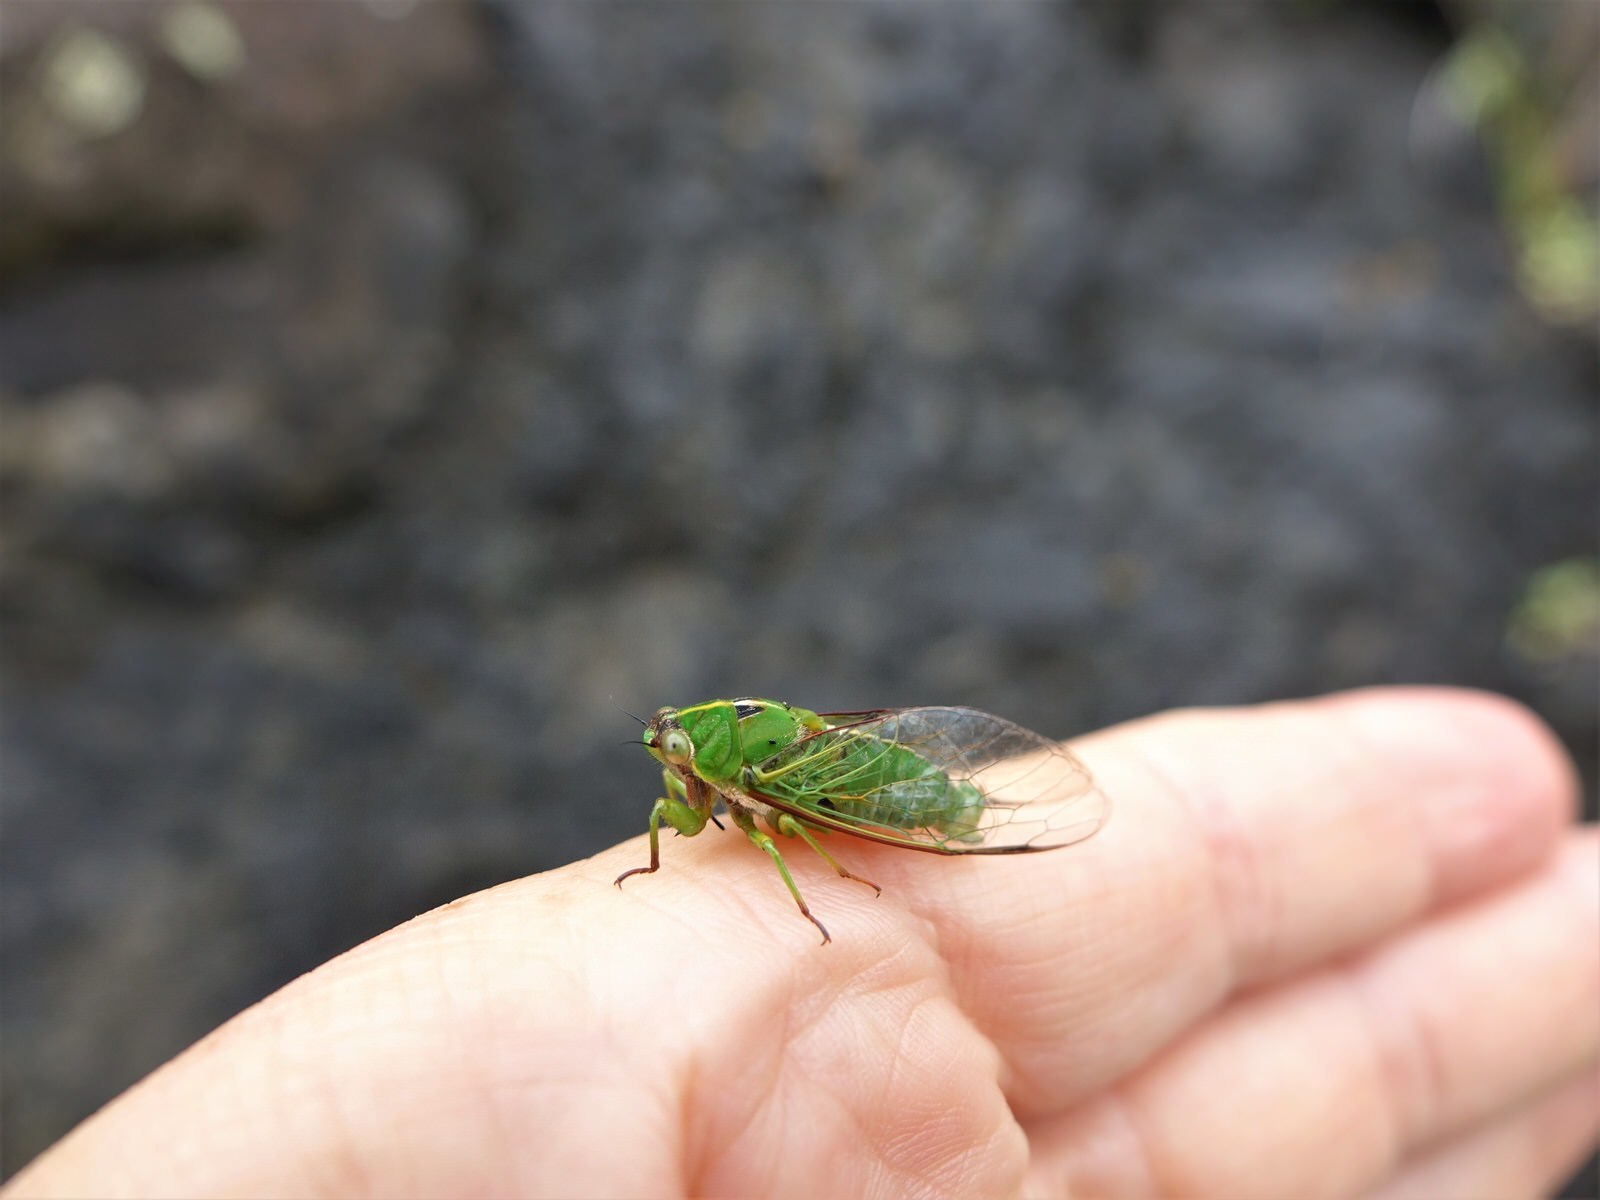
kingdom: Animalia
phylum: Arthropoda
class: Insecta
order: Hemiptera
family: Cicadidae
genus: Kikihia
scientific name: Kikihia cutora
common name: Northern snoring cicada
